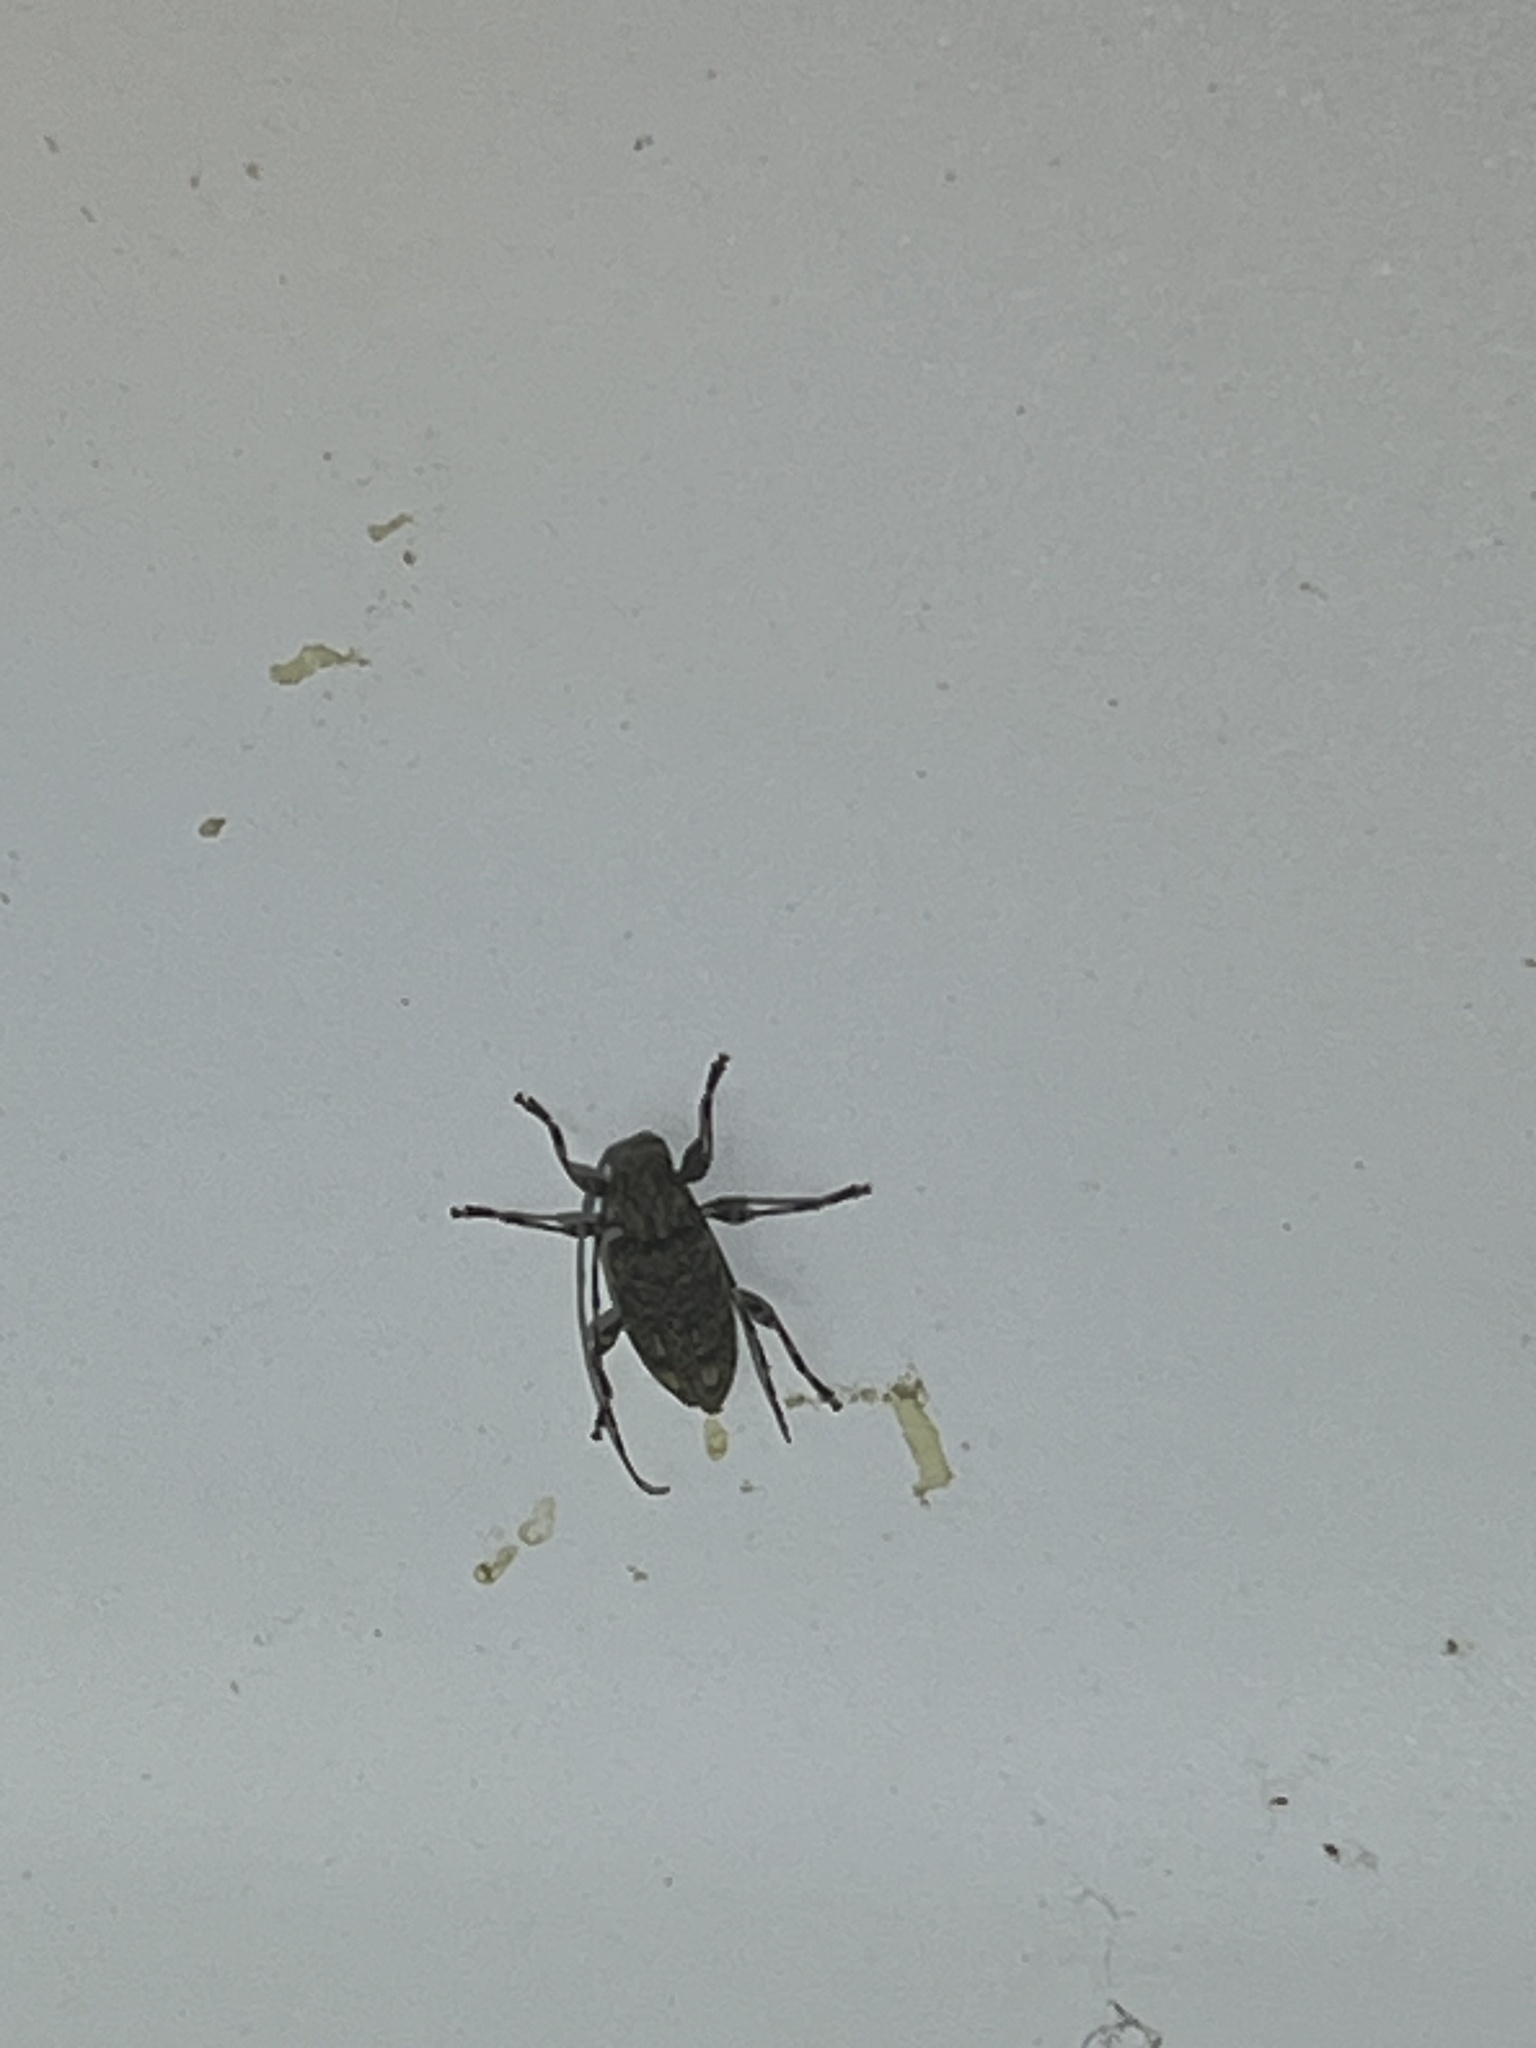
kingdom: Animalia
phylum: Arthropoda
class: Insecta
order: Coleoptera
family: Cerambycidae
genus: Astyleiopus
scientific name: Astyleiopus variegatus
